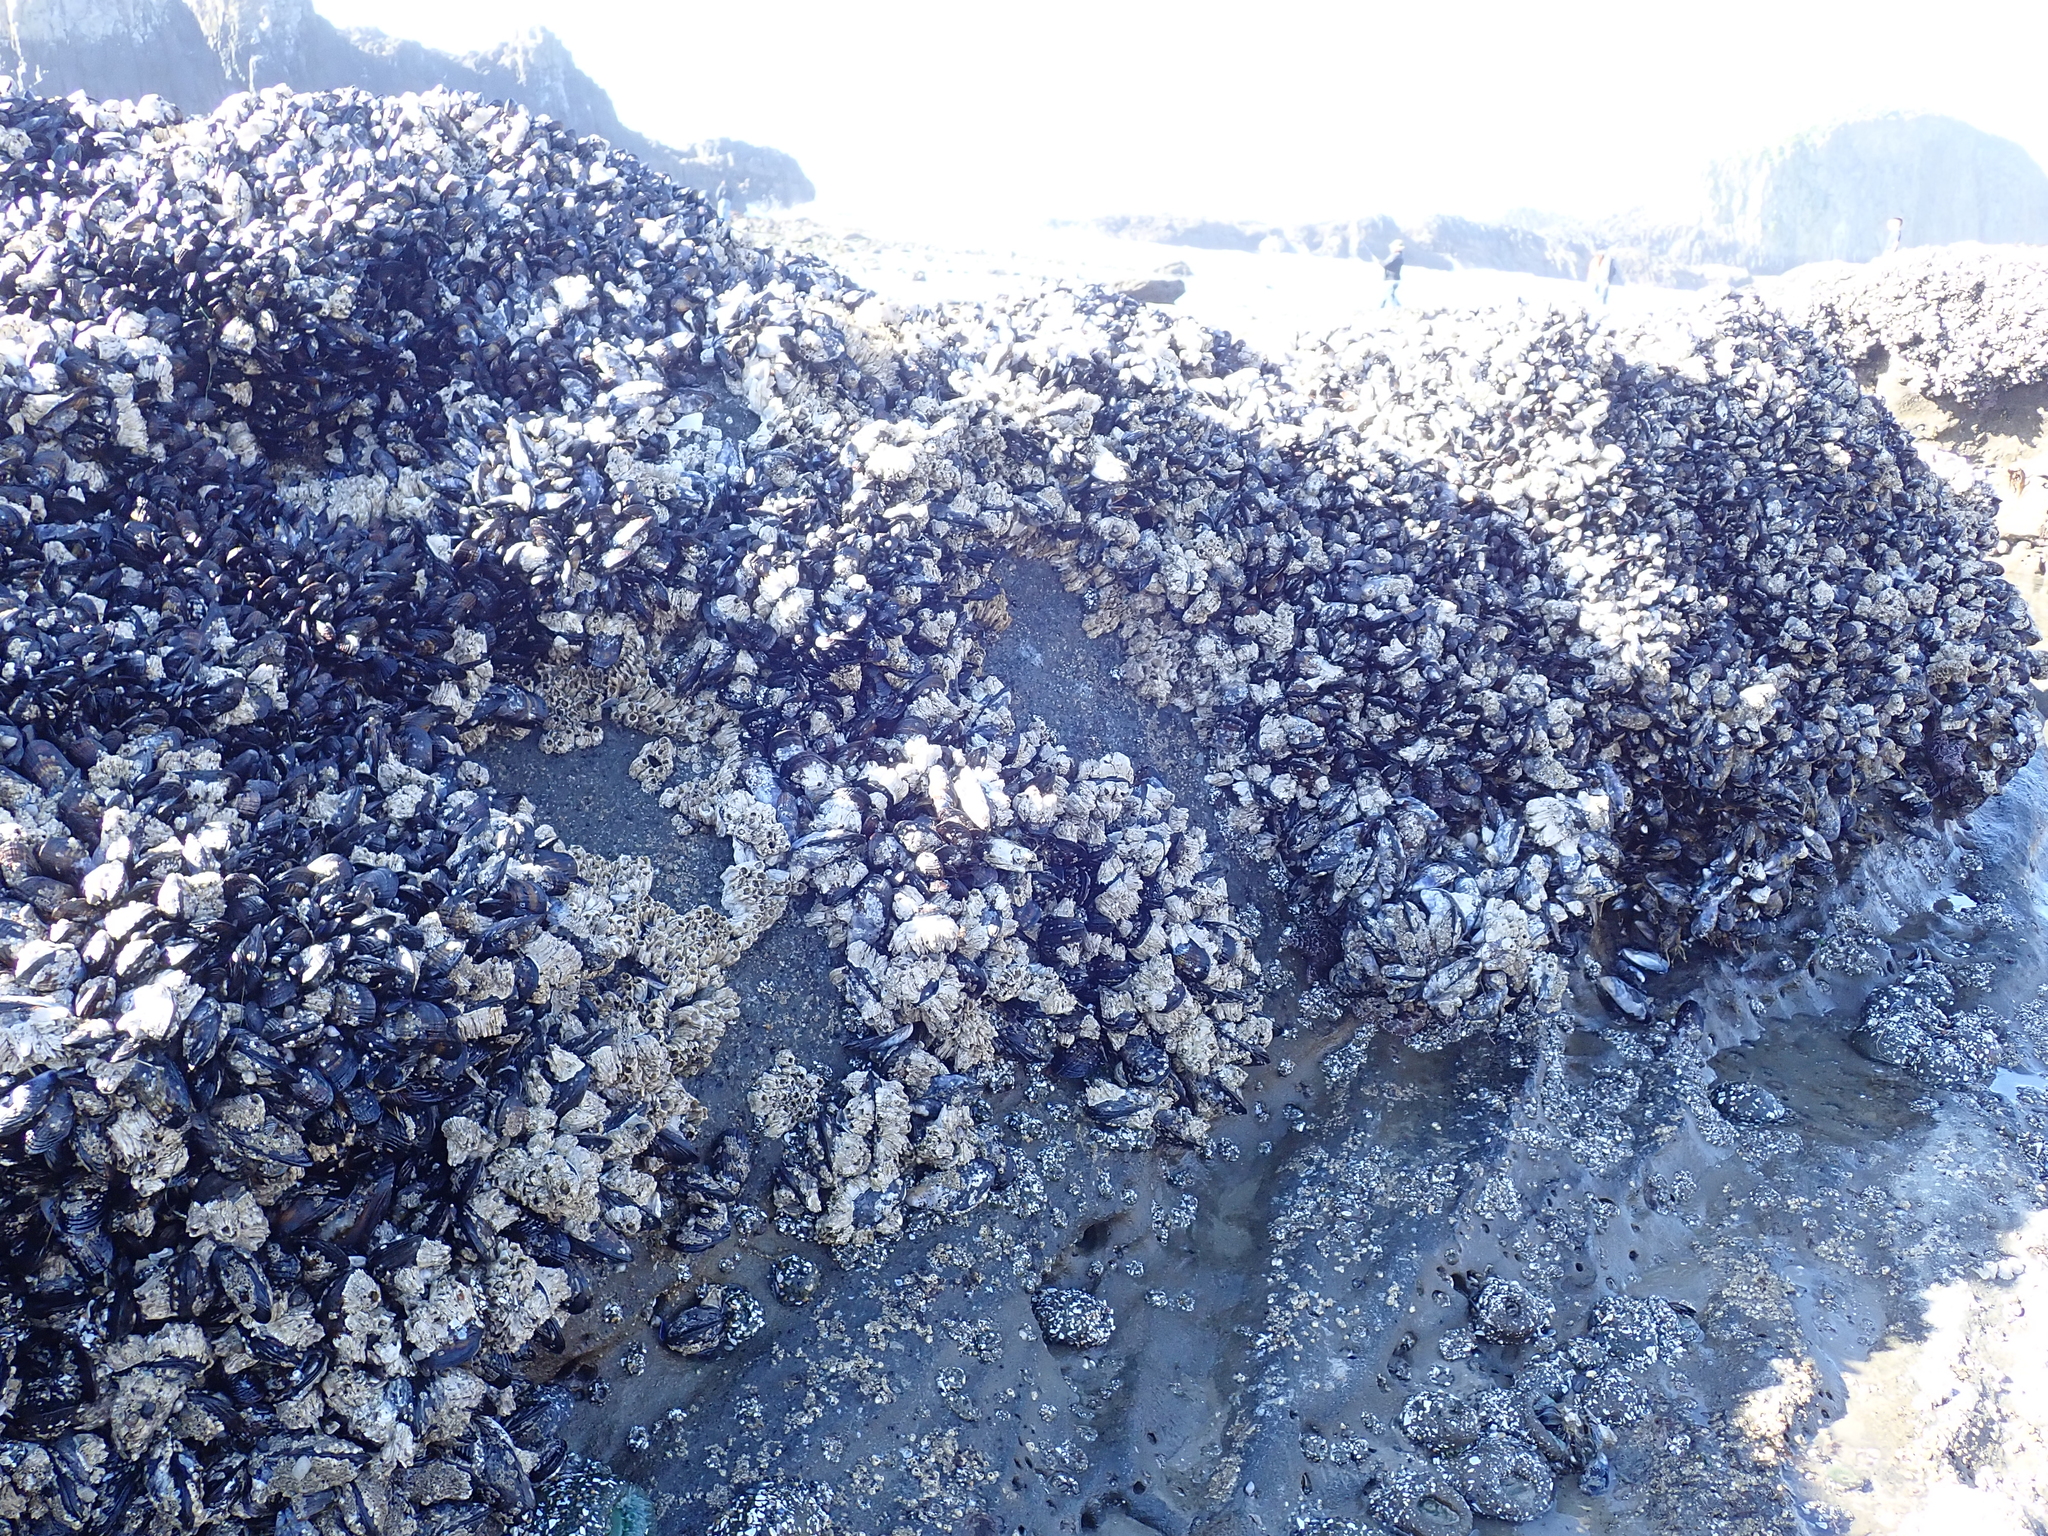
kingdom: Animalia
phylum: Mollusca
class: Bivalvia
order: Mytilida
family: Mytilidae
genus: Mytilus
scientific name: Mytilus californianus
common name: California mussel
